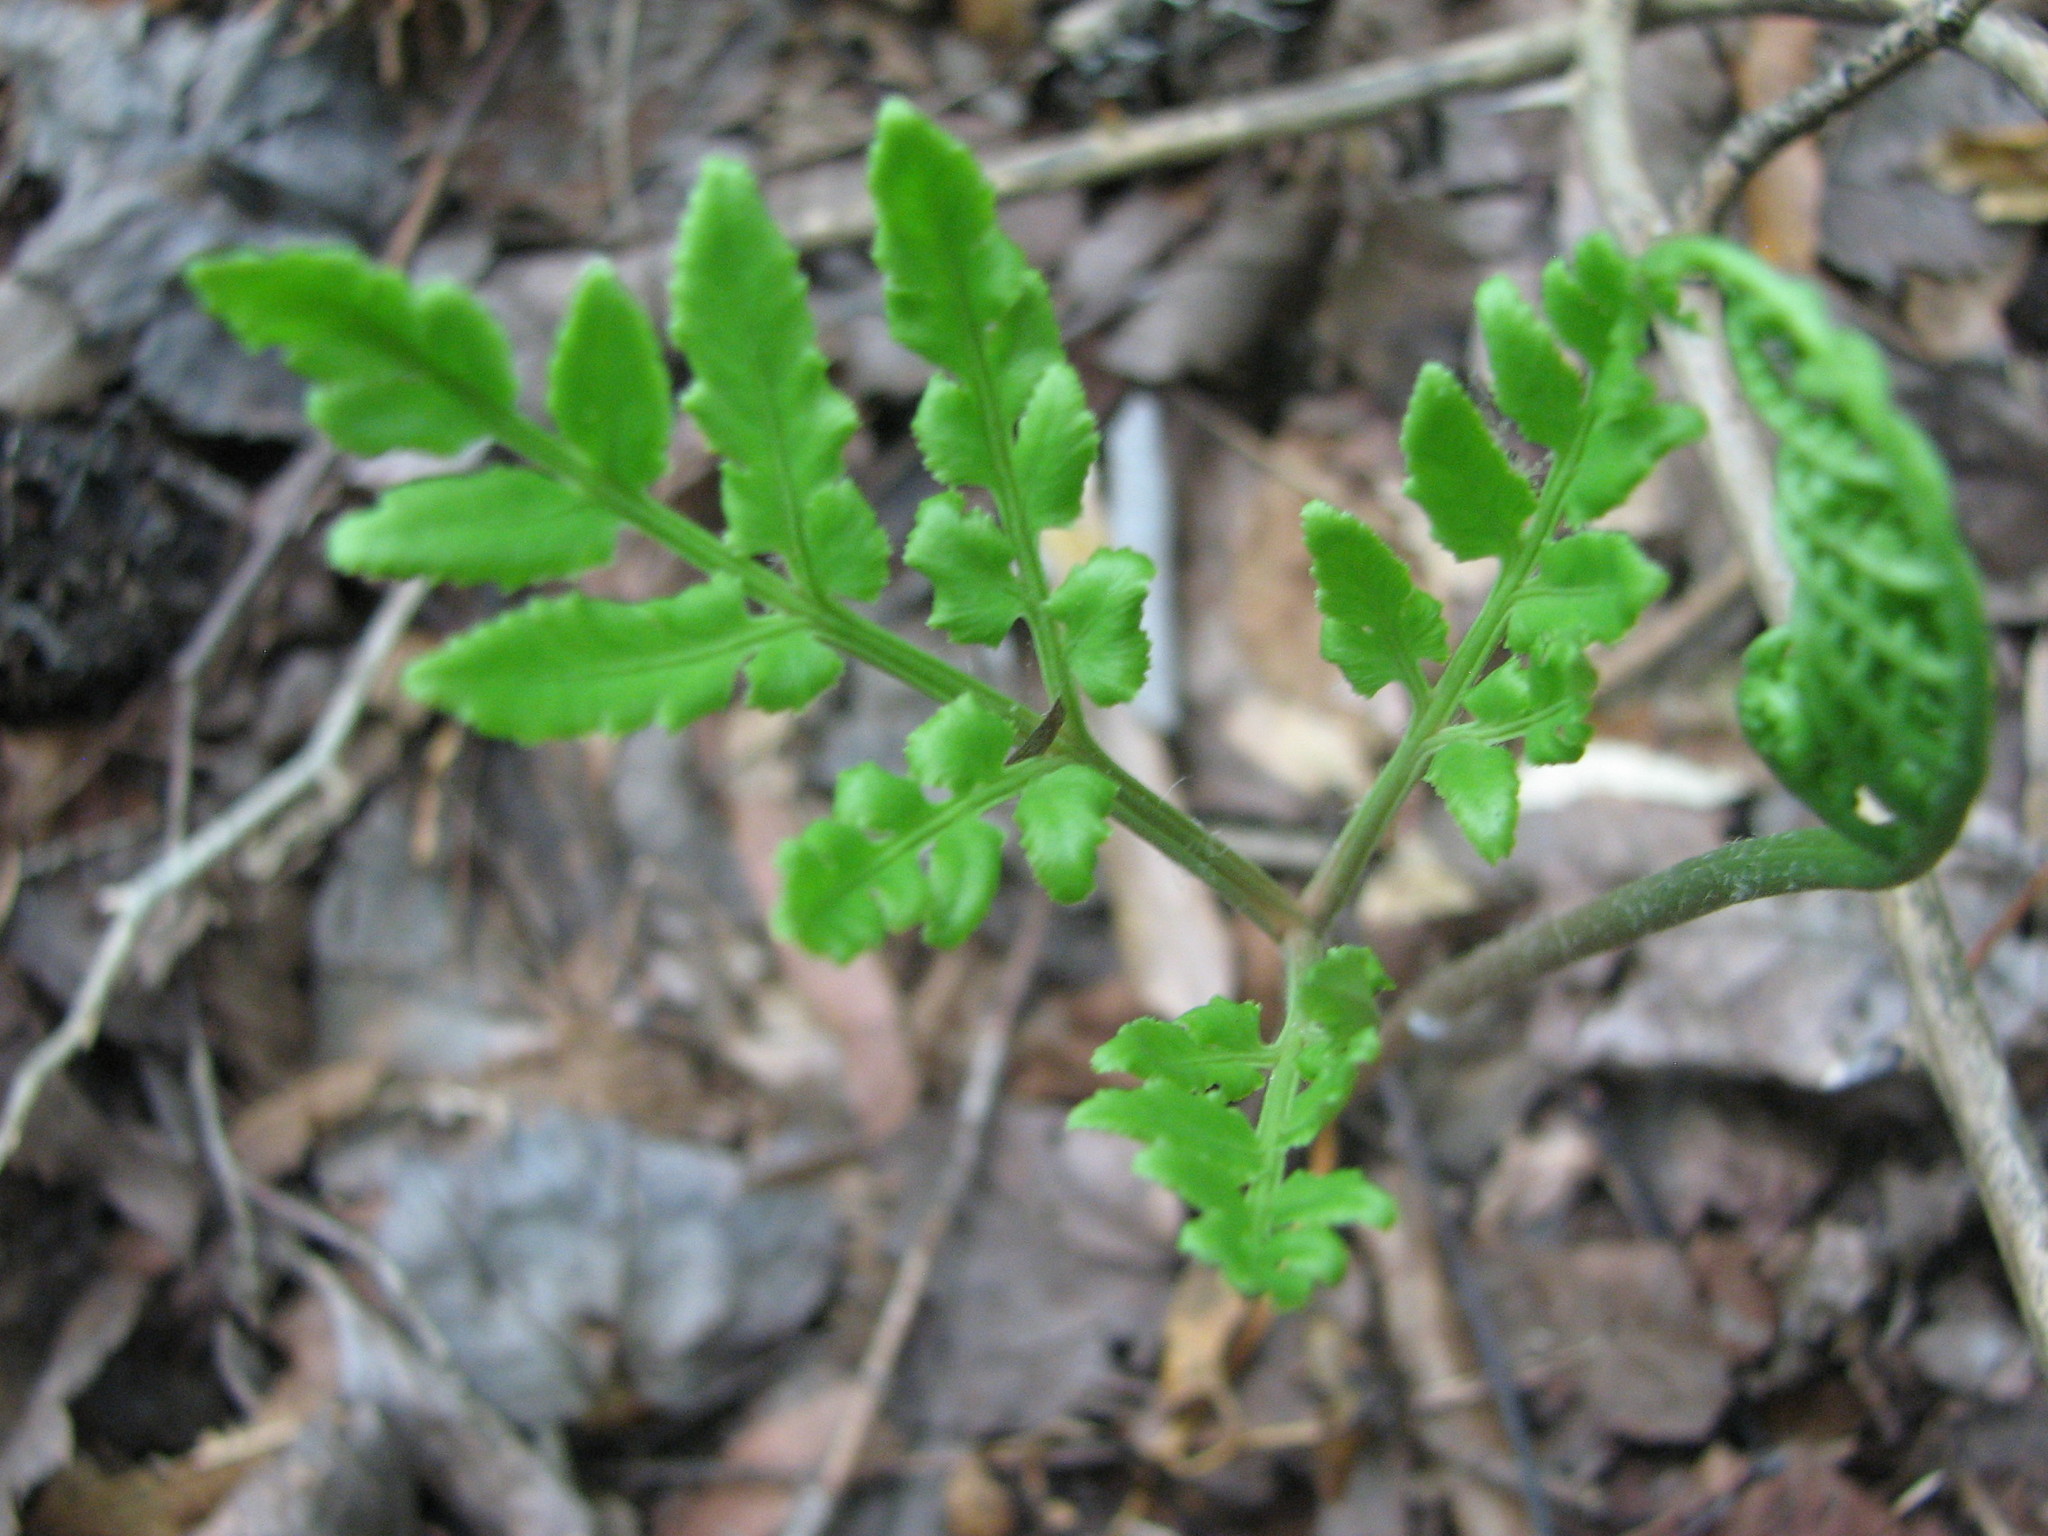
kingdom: Plantae
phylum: Tracheophyta
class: Polypodiopsida
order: Ophioglossales
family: Ophioglossaceae
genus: Sceptridium
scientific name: Sceptridium dissectum
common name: Cut-leaved grapefern
